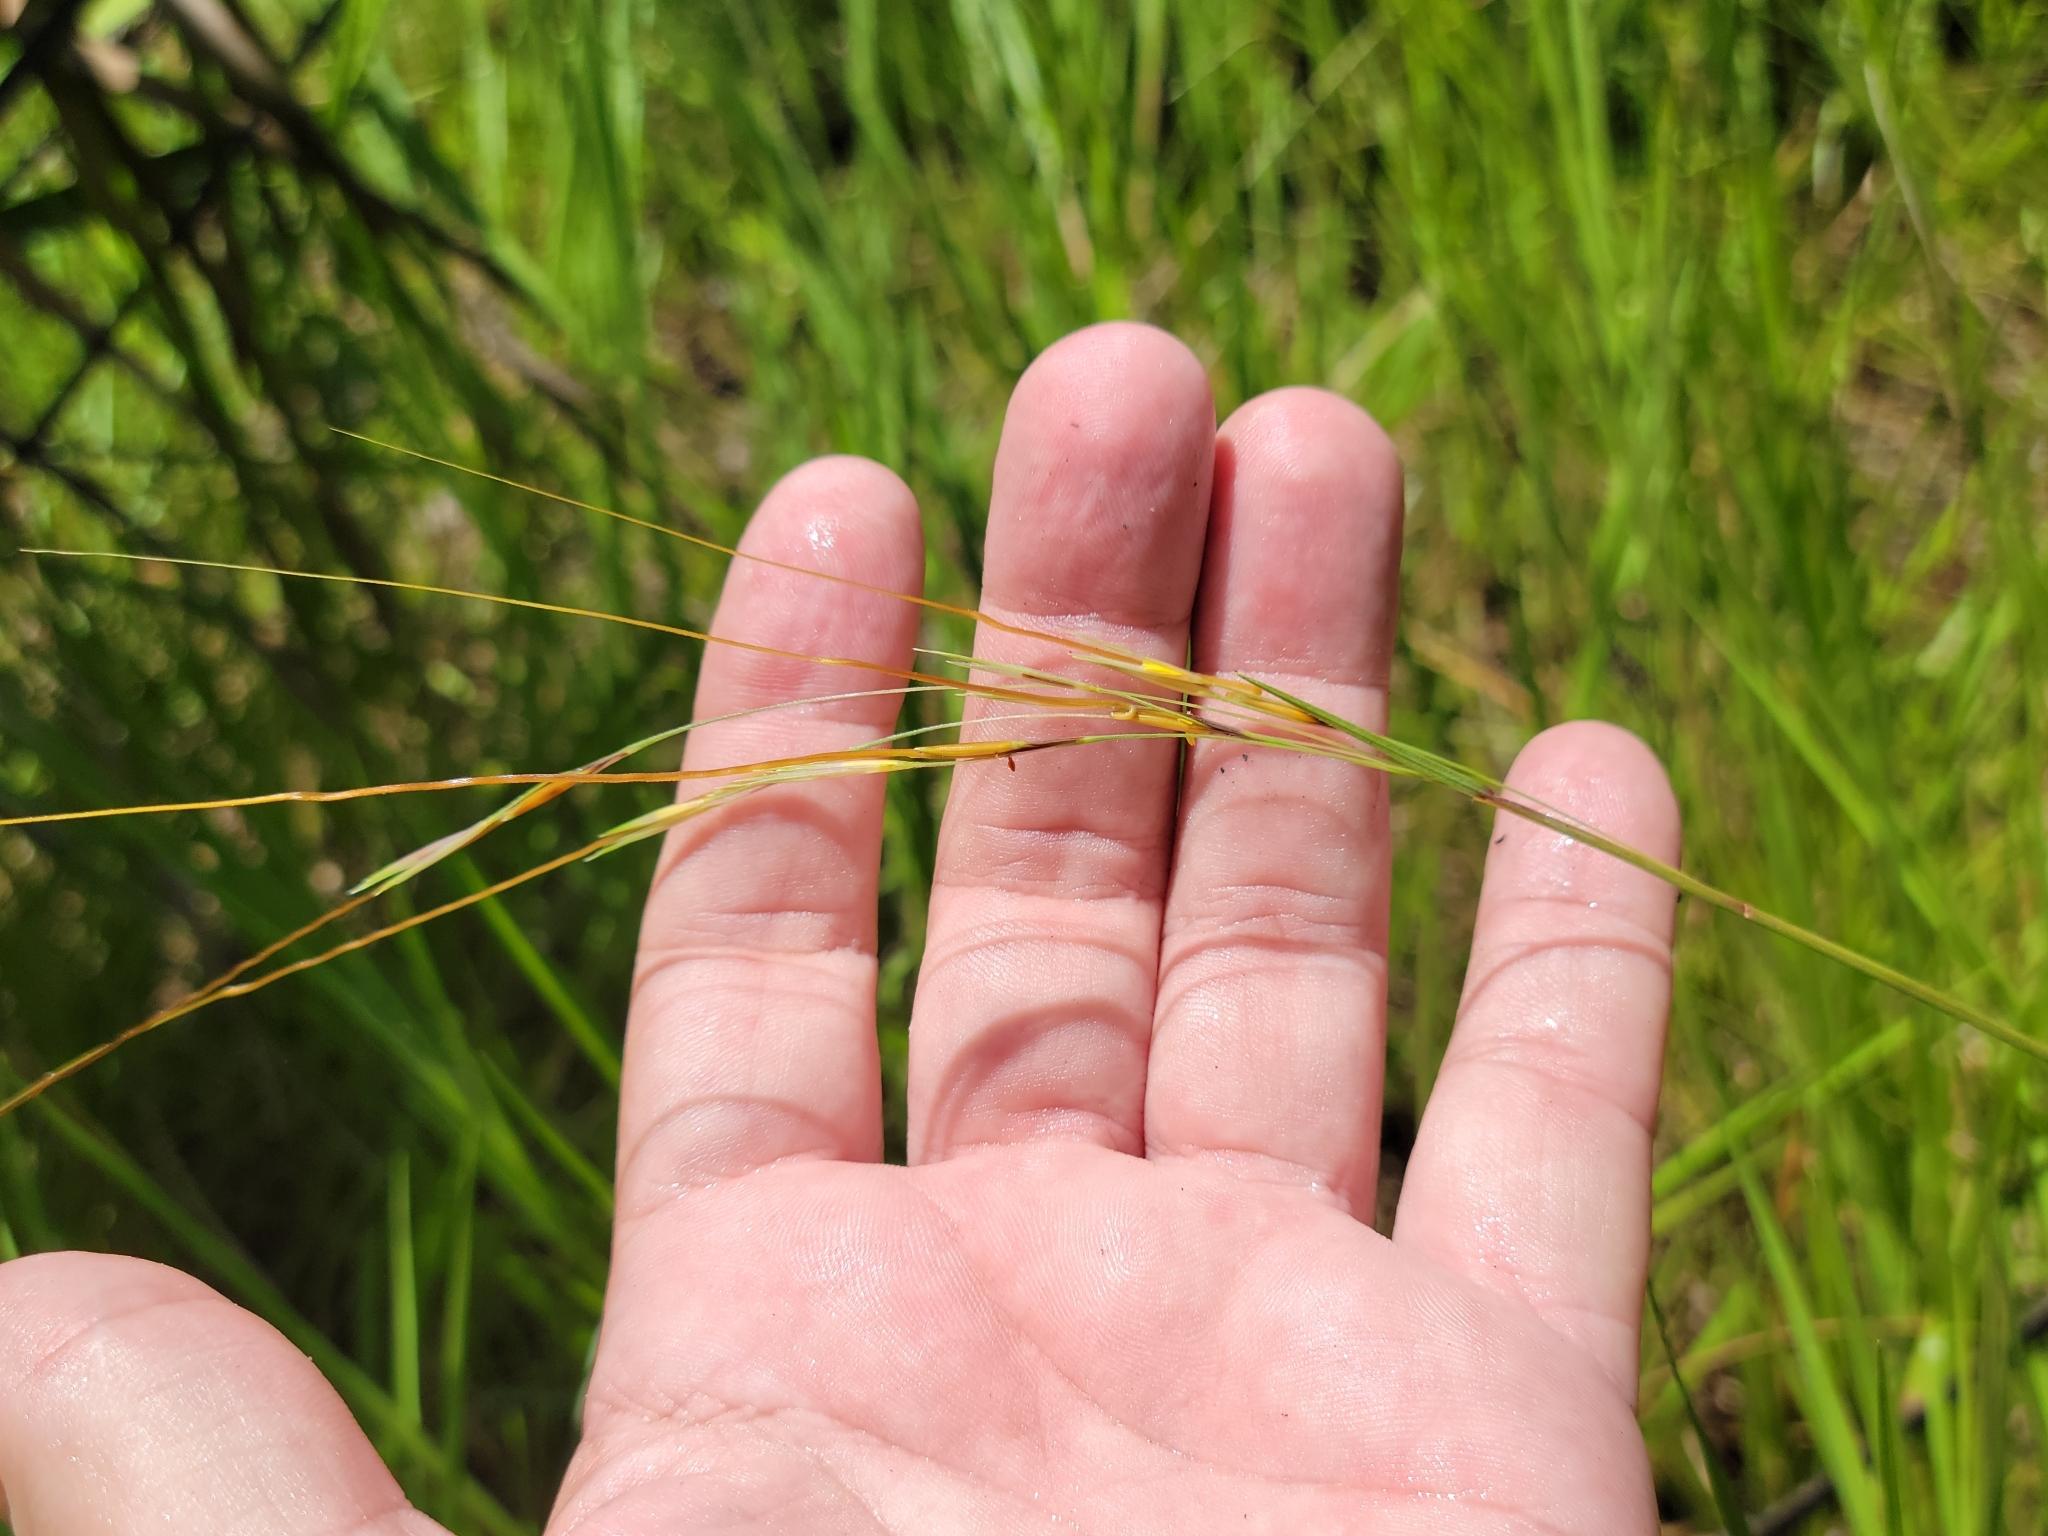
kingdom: Plantae
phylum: Tracheophyta
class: Liliopsida
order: Poales
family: Poaceae
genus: Chrysopogon
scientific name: Chrysopogon pauciflorus
